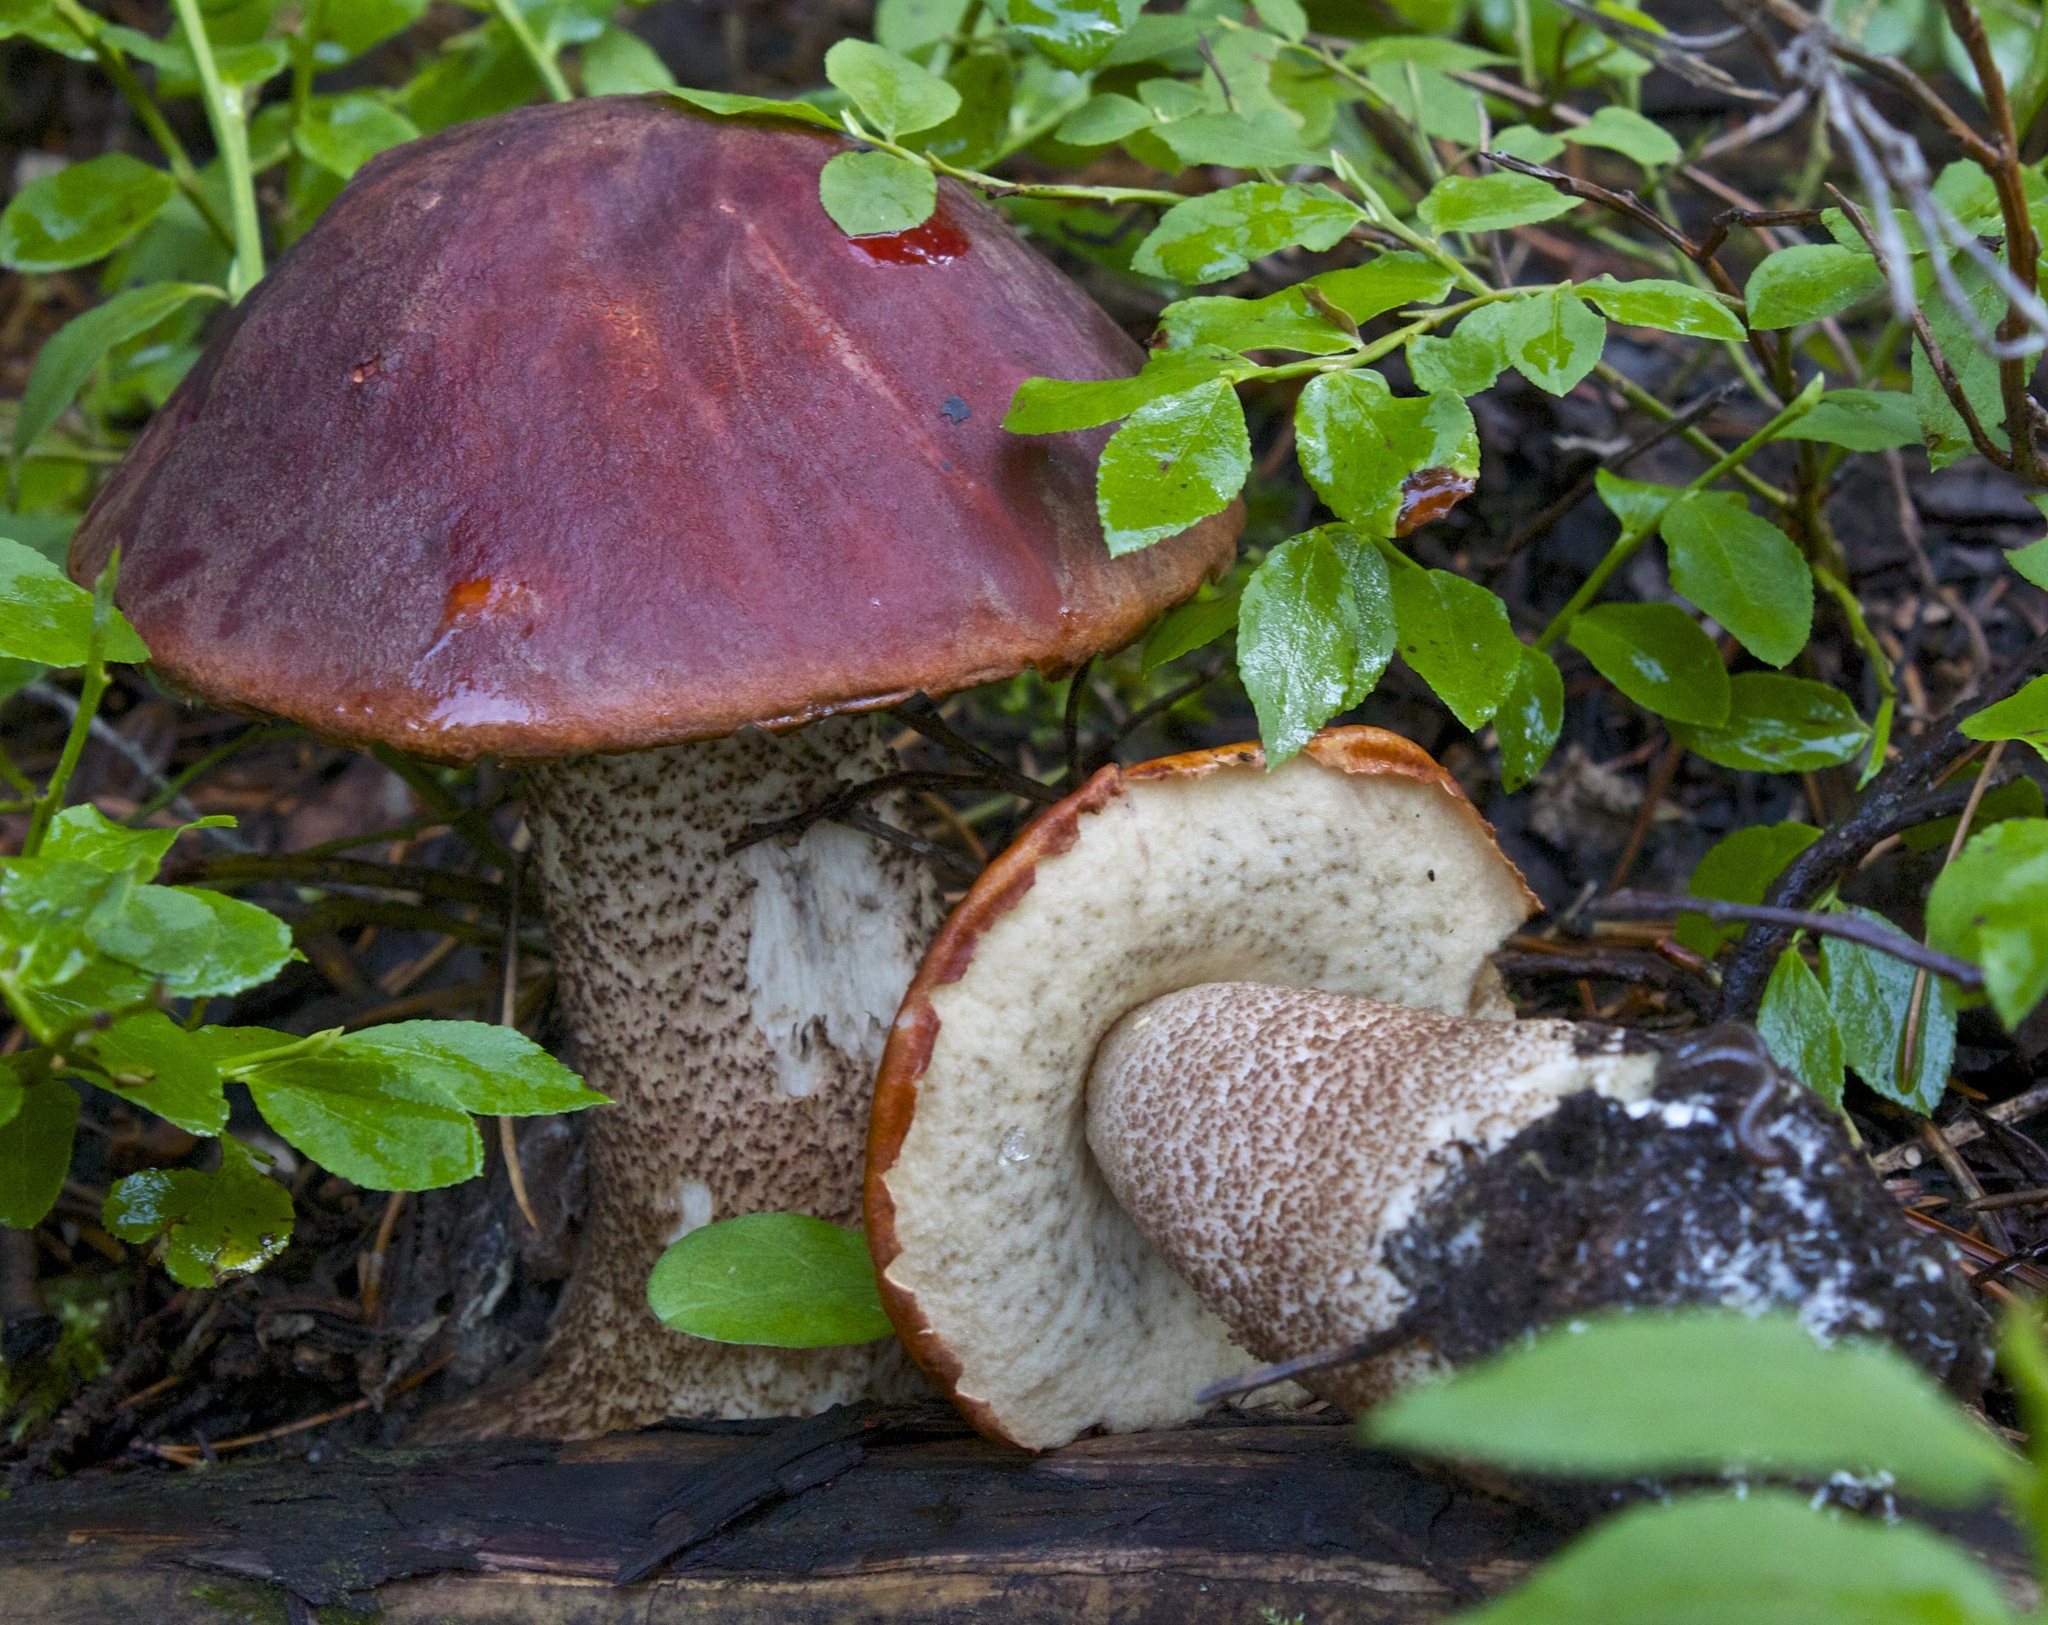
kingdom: Fungi
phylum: Basidiomycota
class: Agaricomycetes
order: Boletales
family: Boletaceae
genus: Leccinum
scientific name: Leccinum aurantiacum
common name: Orange bolete
